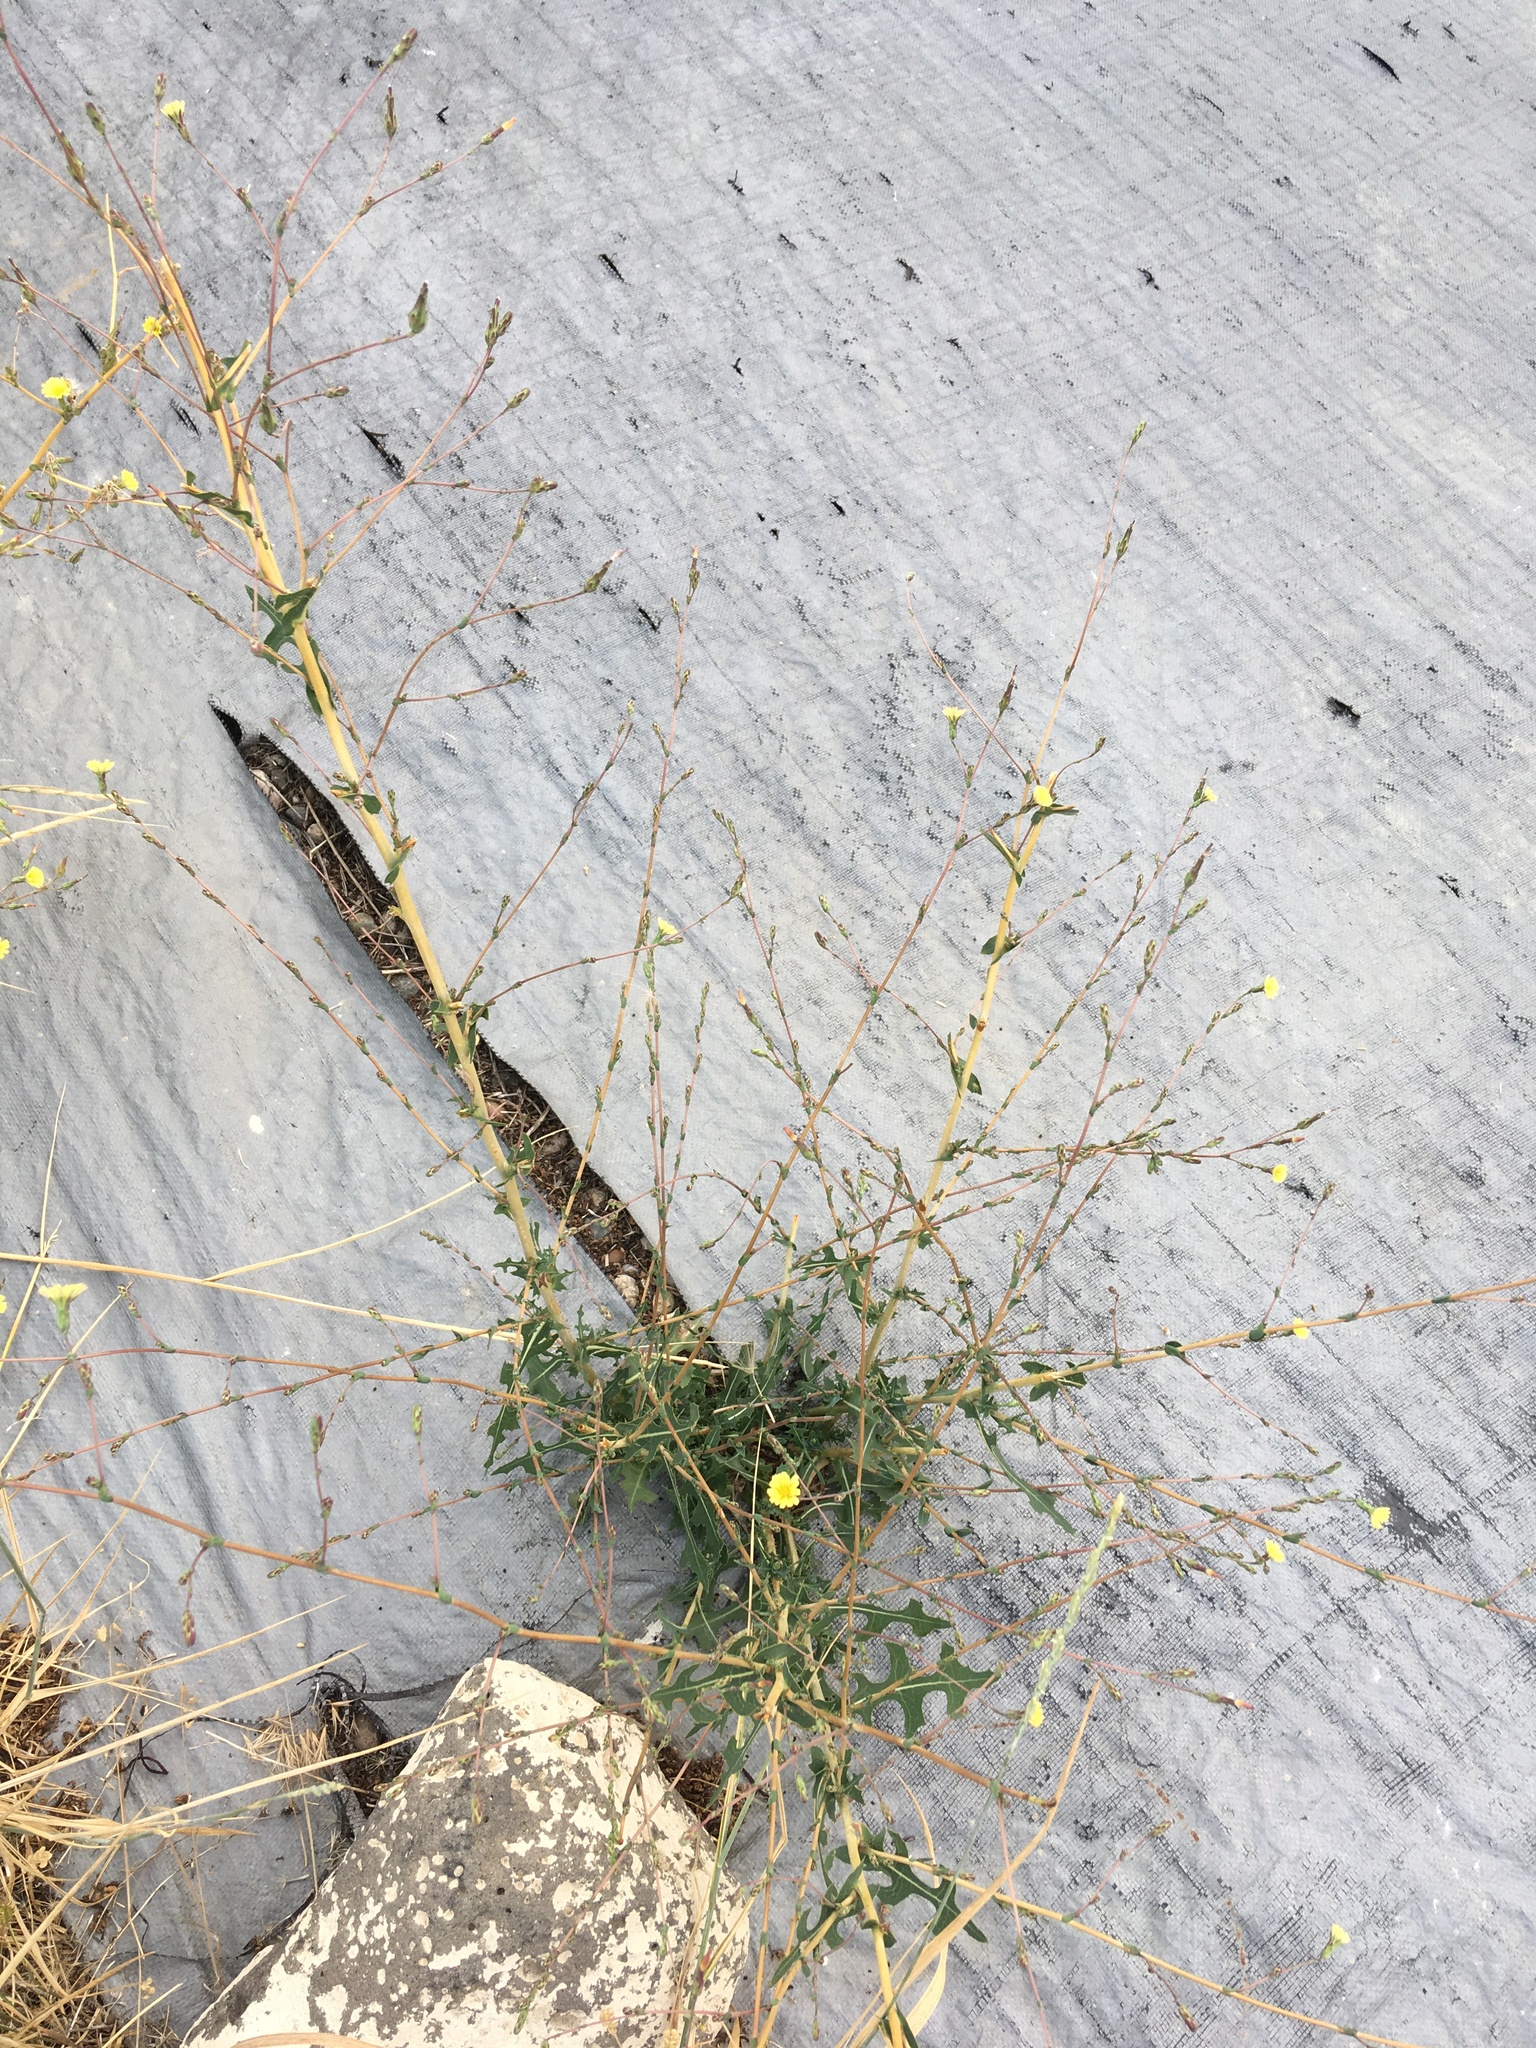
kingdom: Plantae
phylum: Tracheophyta
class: Magnoliopsida
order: Asterales
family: Asteraceae
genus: Lactuca
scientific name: Lactuca serriola
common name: Prickly lettuce
